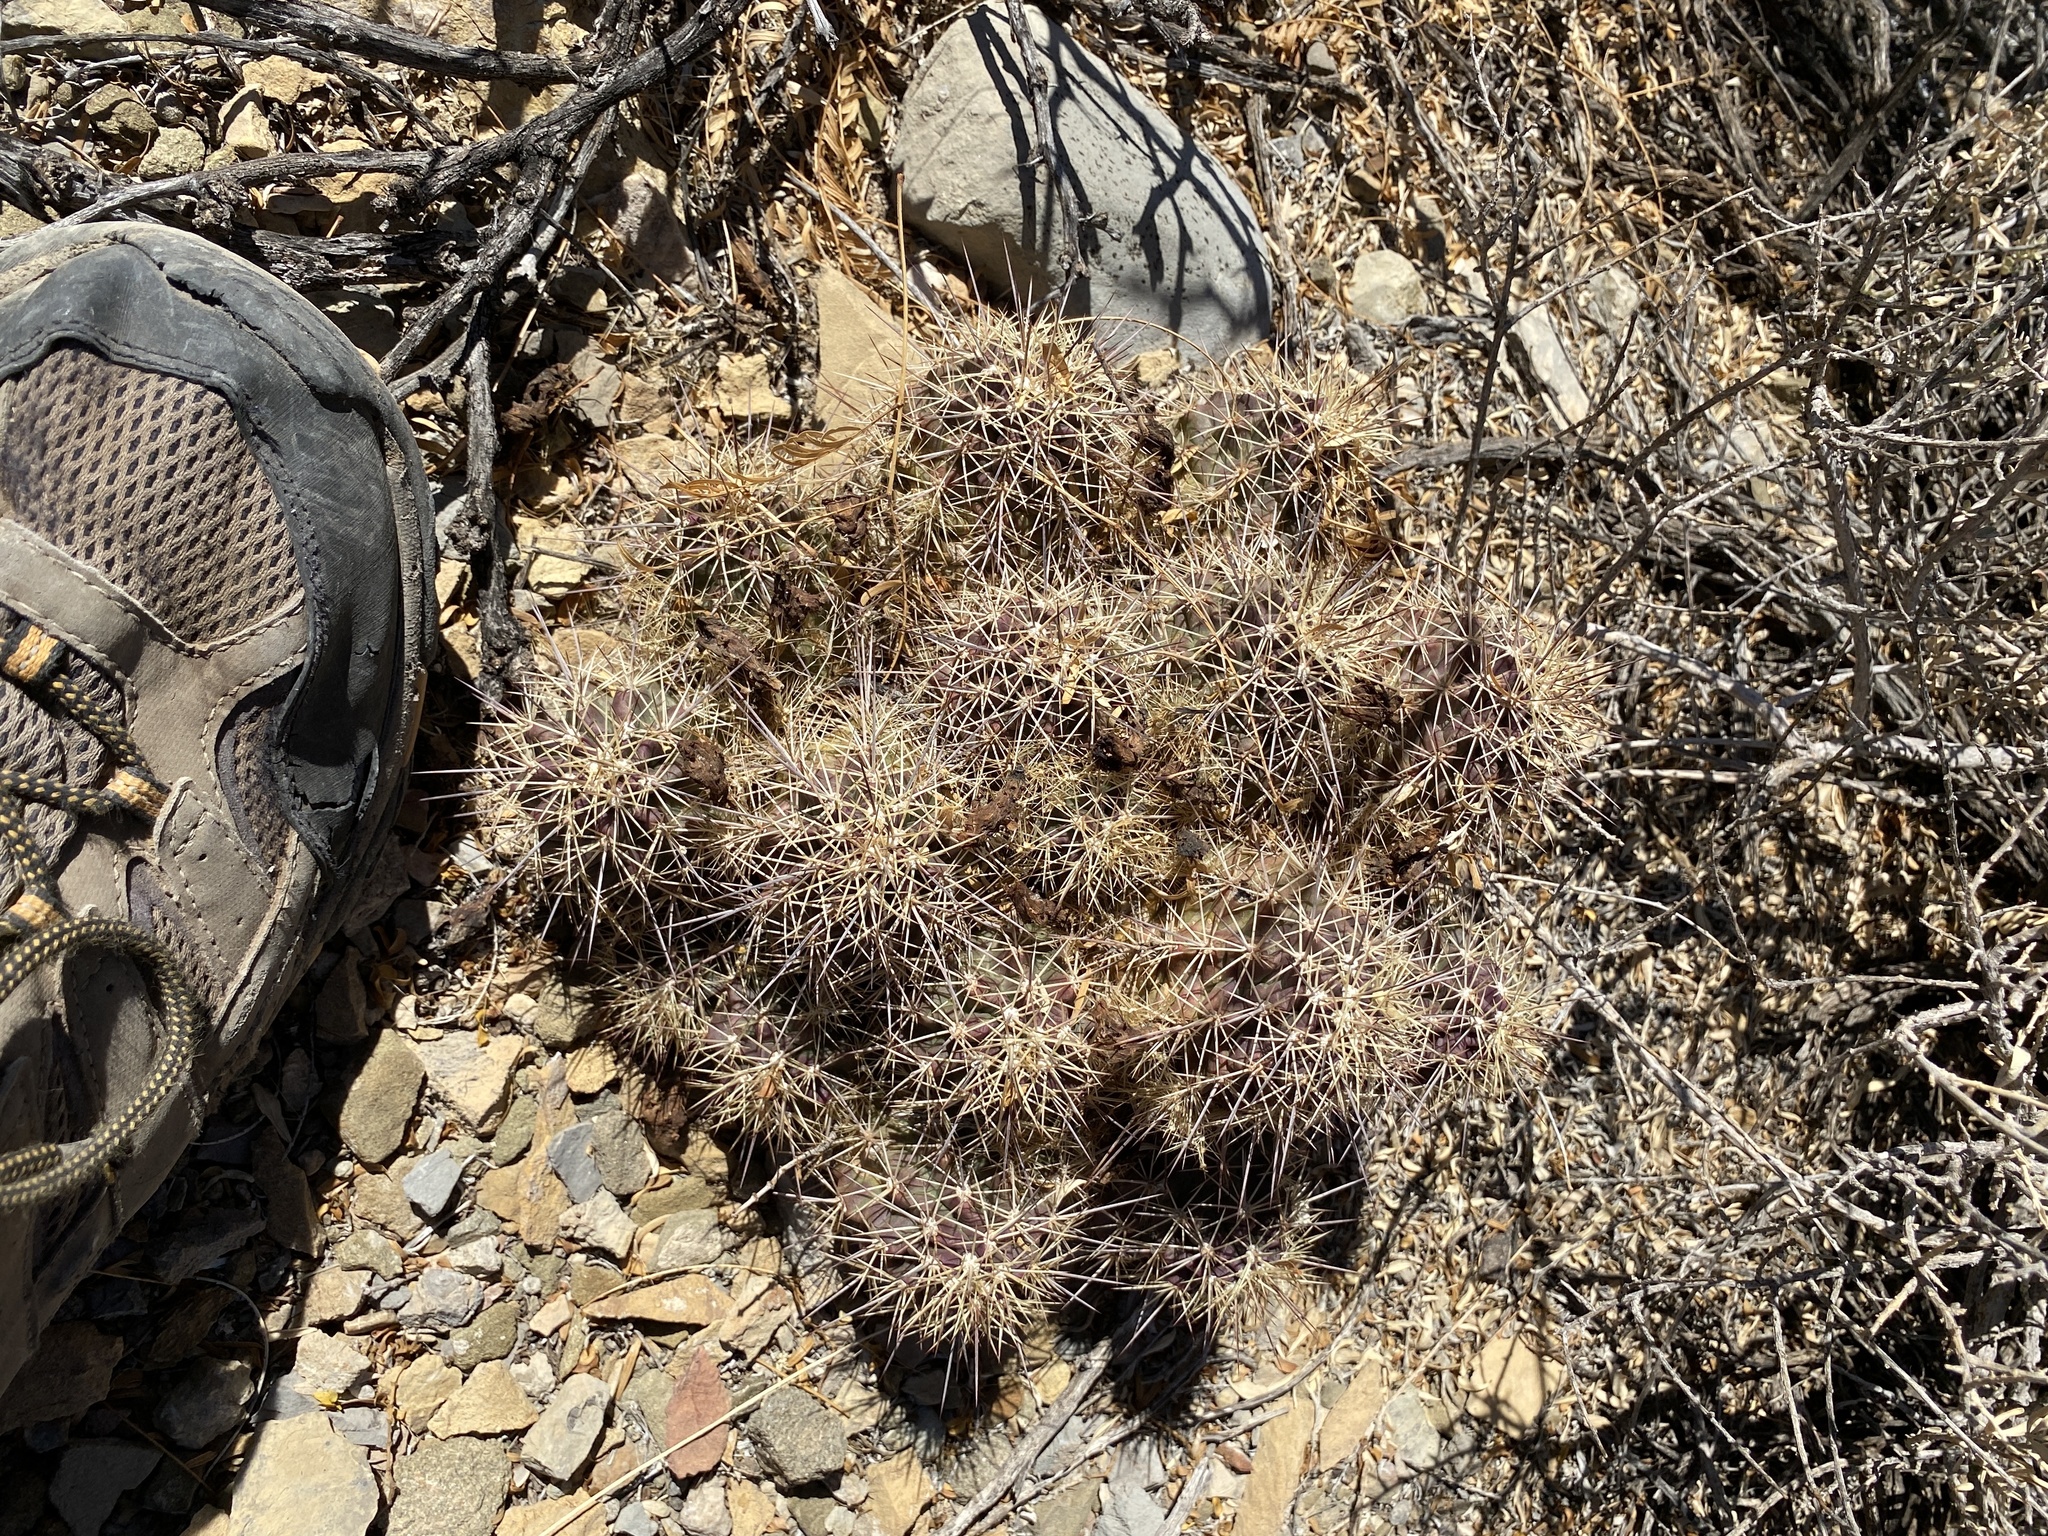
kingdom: Plantae
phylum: Tracheophyta
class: Magnoliopsida
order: Caryophyllales
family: Cactaceae
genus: Echinocereus
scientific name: Echinocereus coccineus
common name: Scarlet hedgehog cactus
